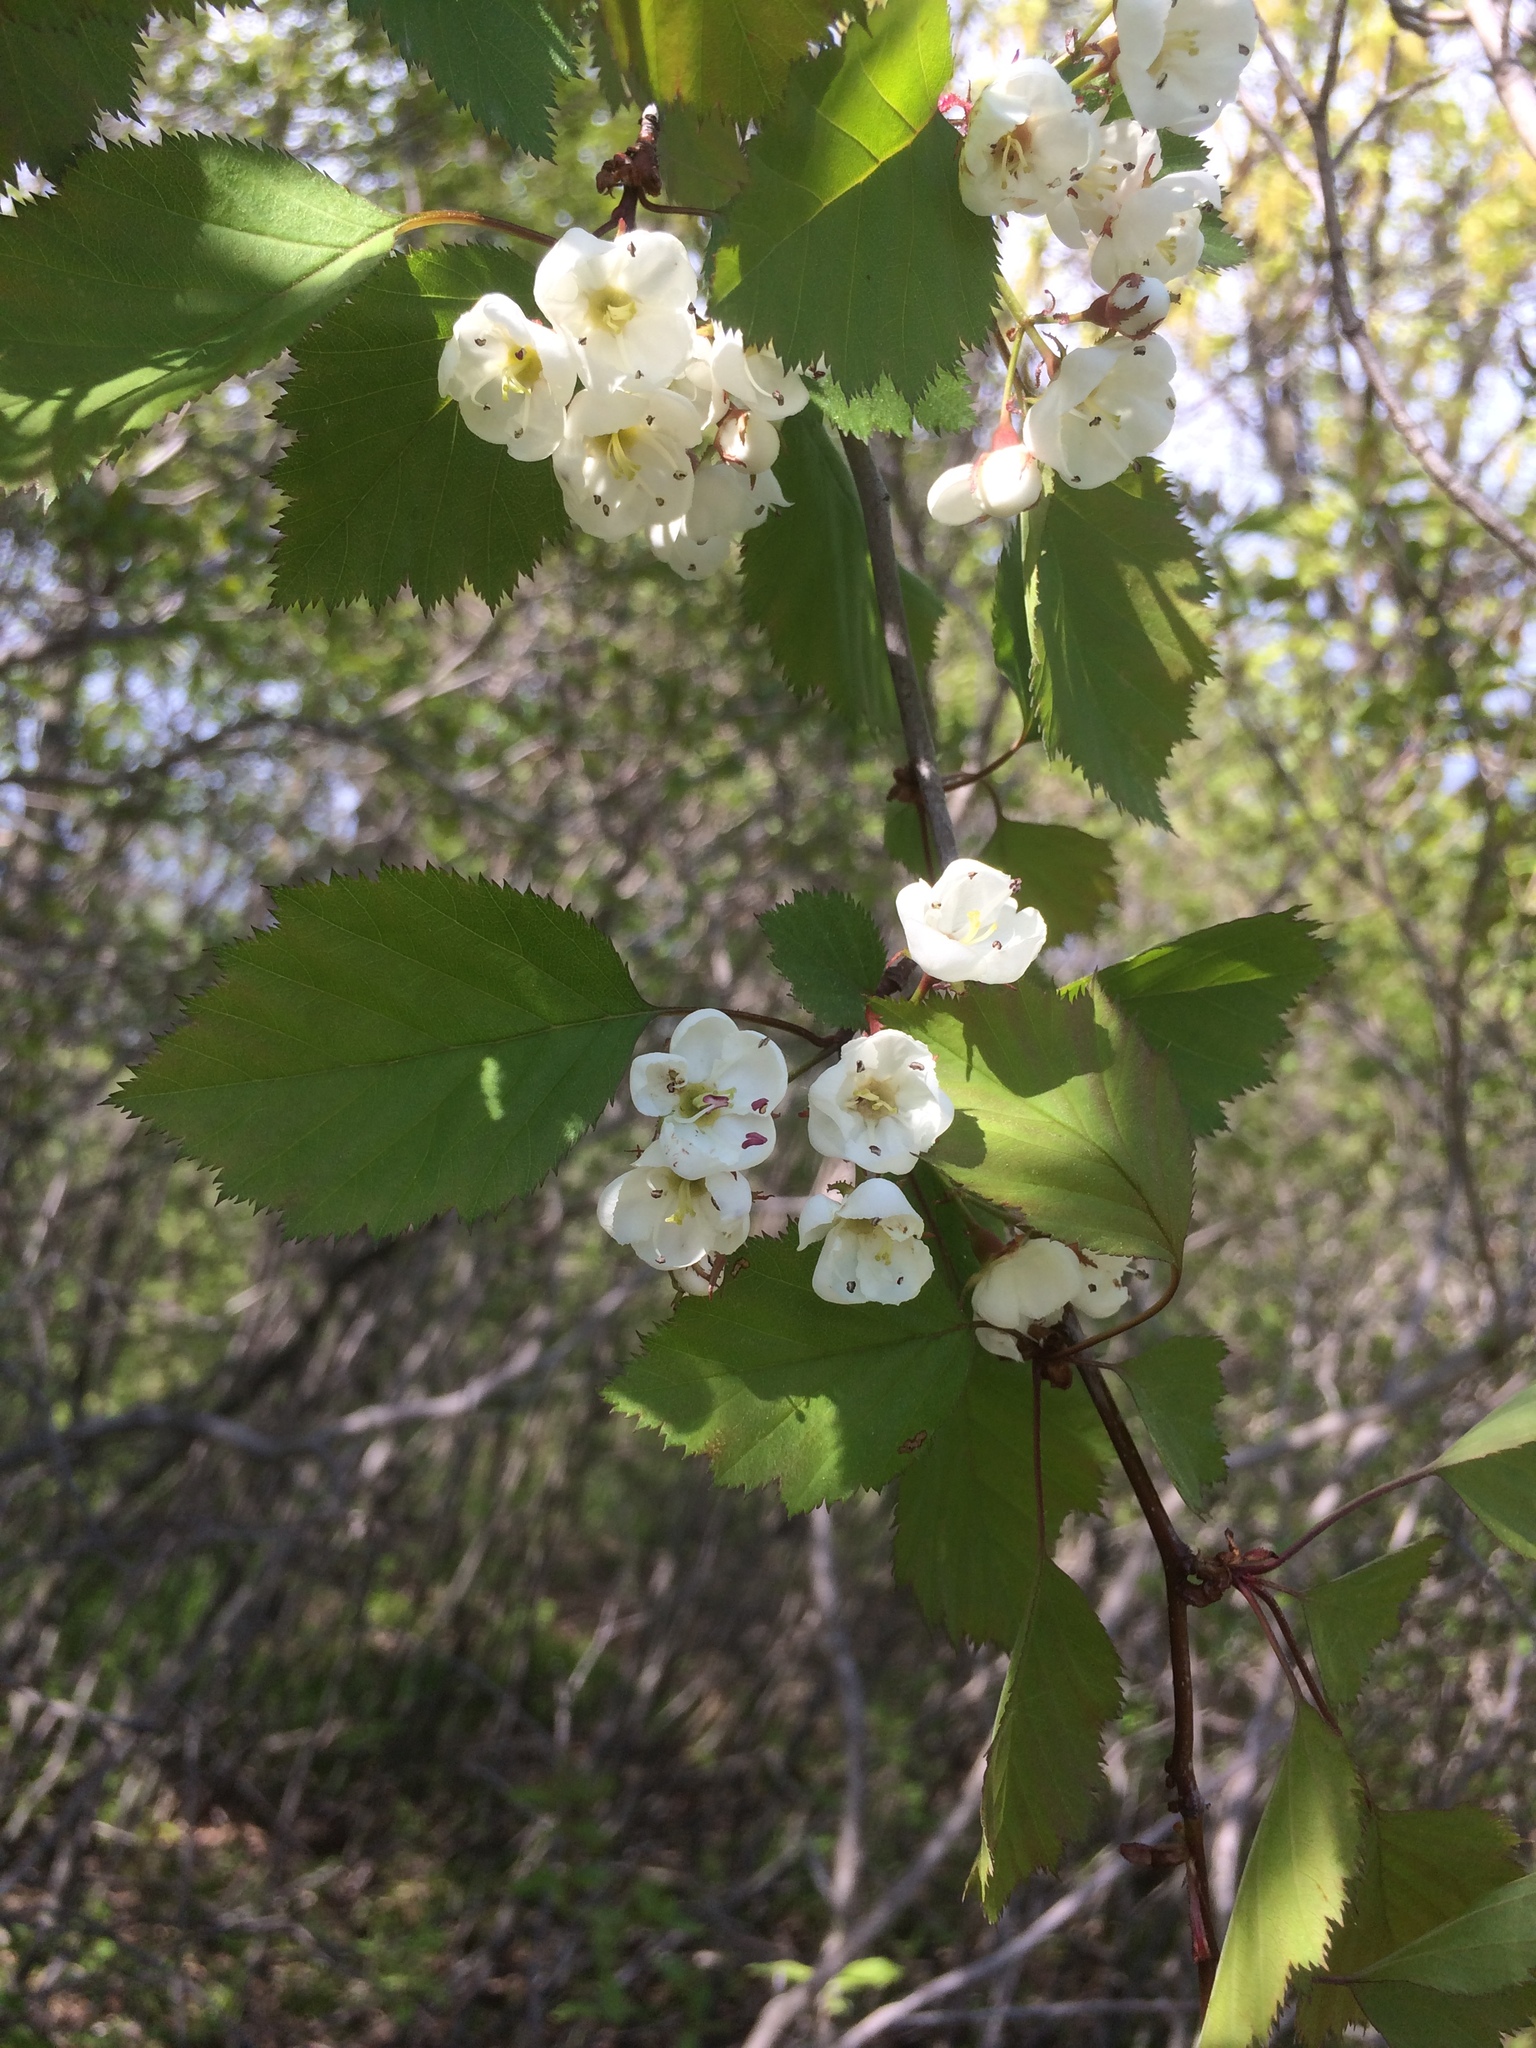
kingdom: Plantae
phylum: Tracheophyta
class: Magnoliopsida
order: Rosales
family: Rosaceae
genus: Crataegus
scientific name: Crataegus holmesiana
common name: Holmes' hawthorn
